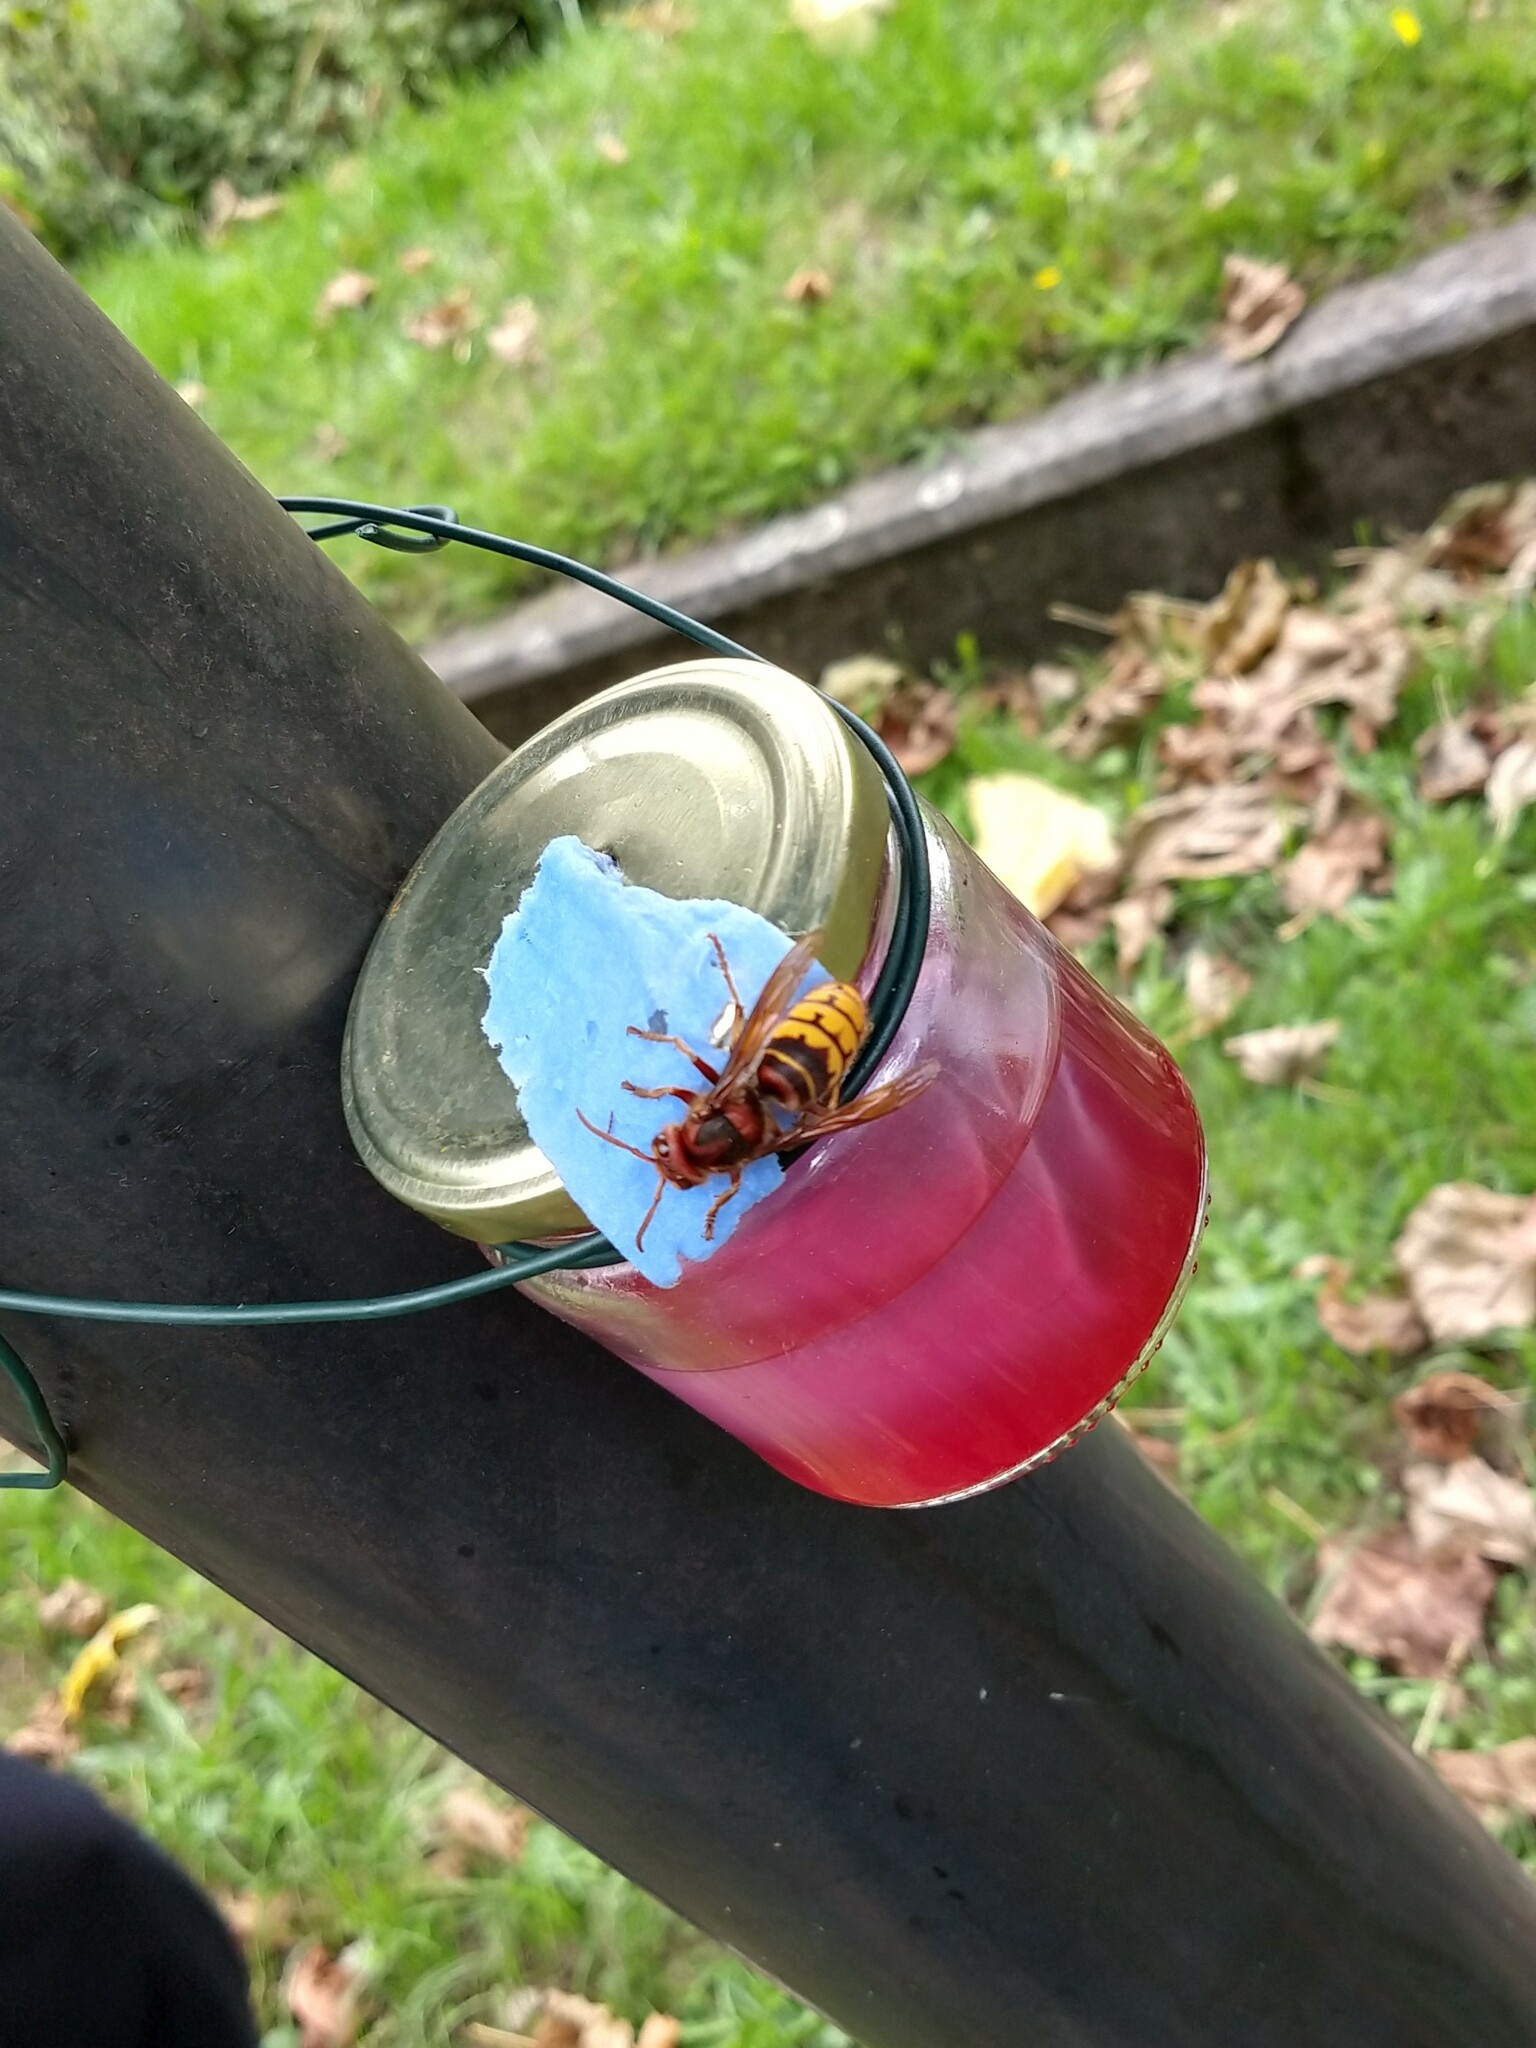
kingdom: Animalia
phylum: Arthropoda
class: Insecta
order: Hymenoptera
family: Vespidae
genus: Vespa
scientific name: Vespa crabro
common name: Hornet
